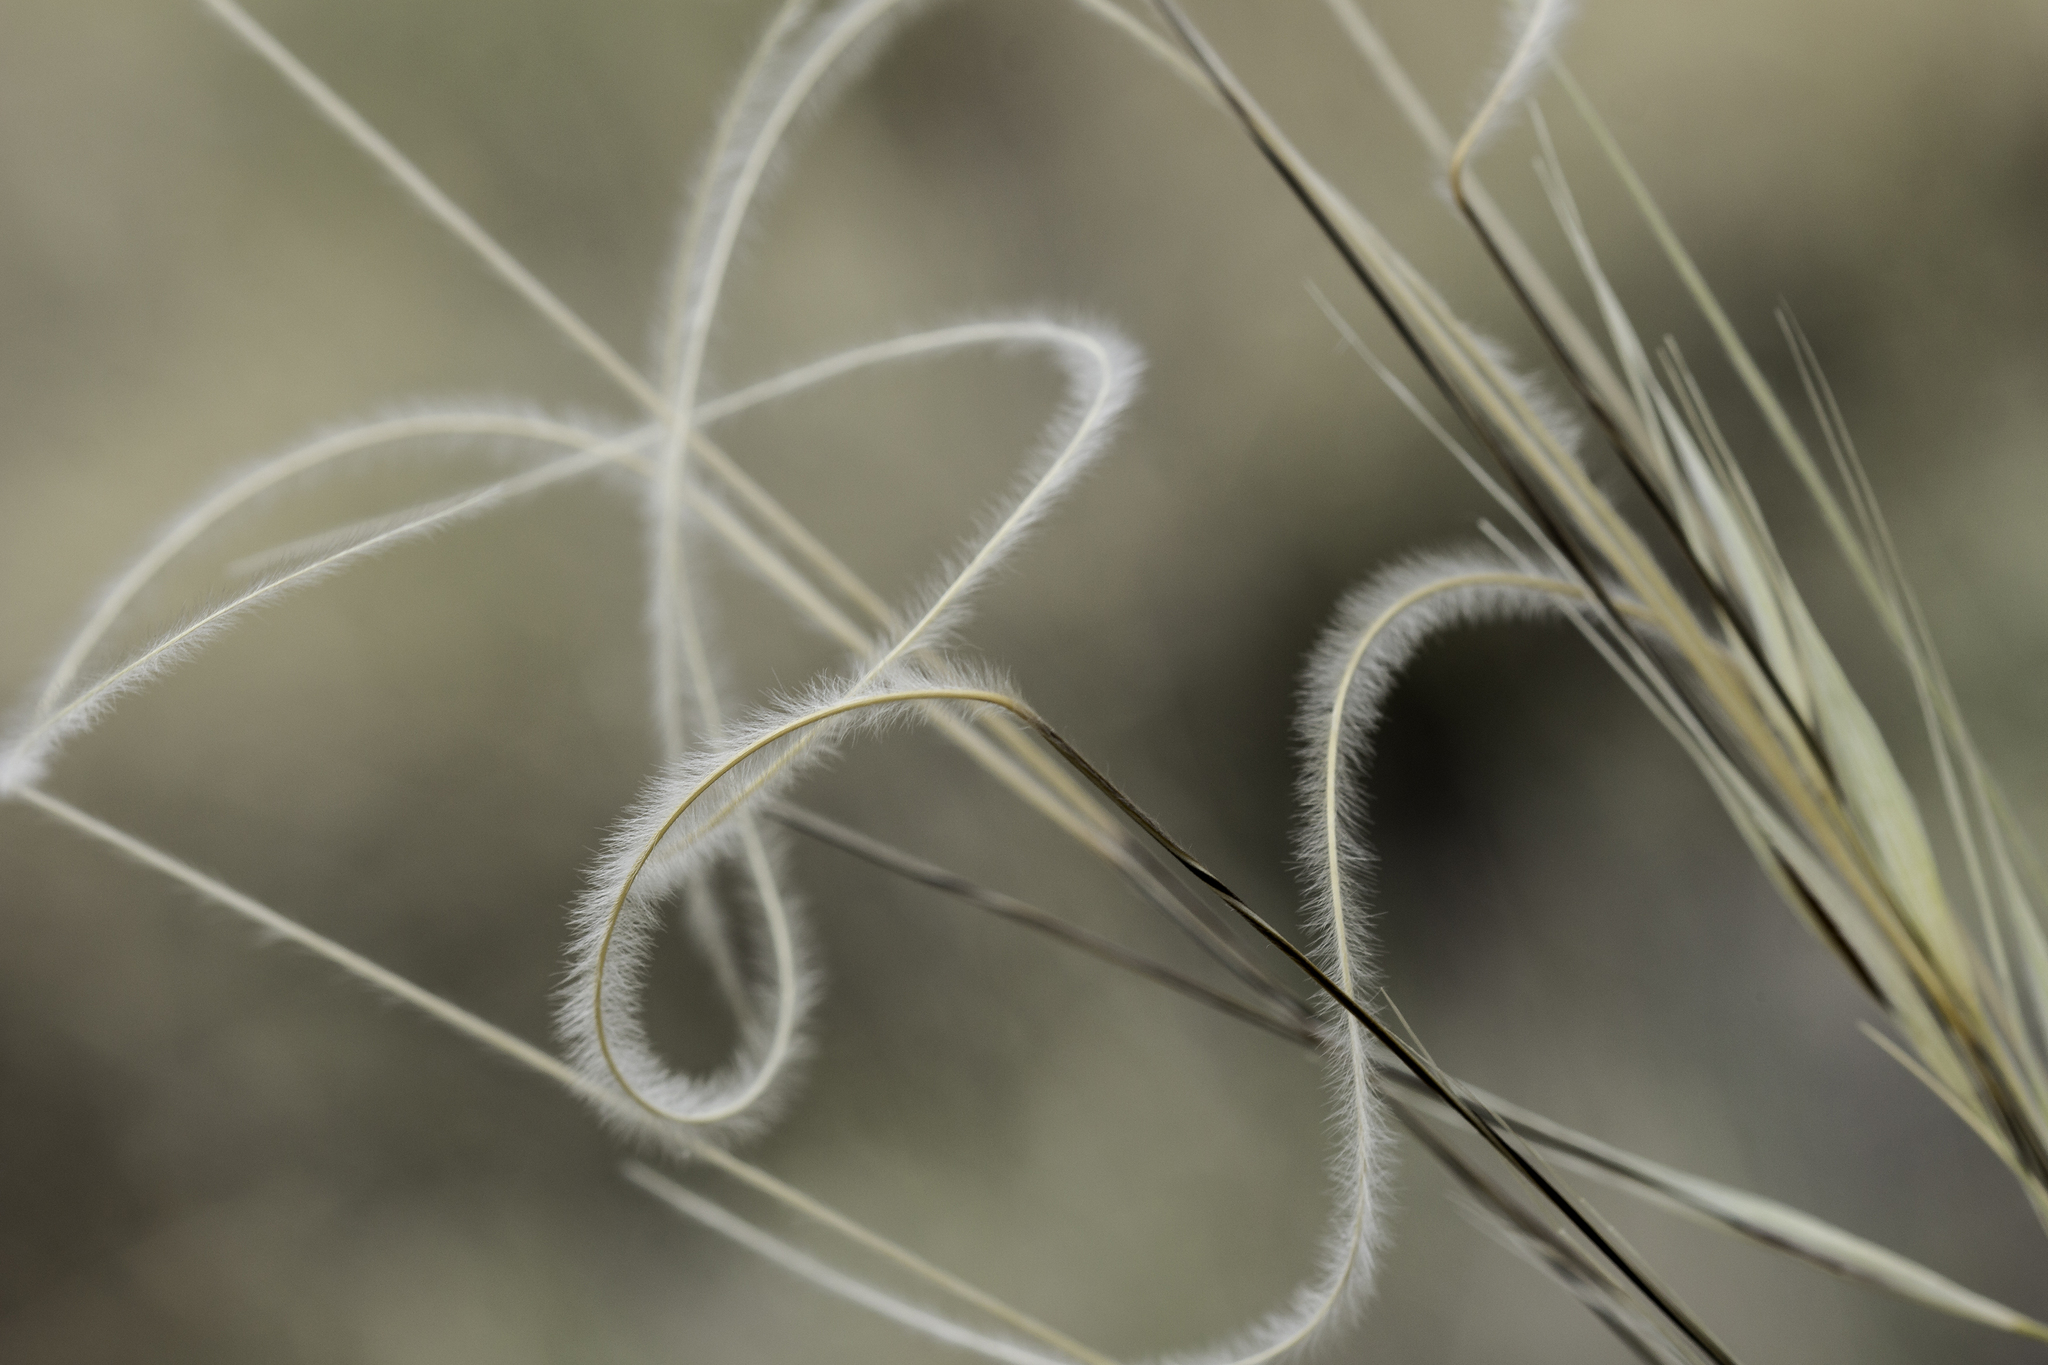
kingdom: Plantae
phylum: Tracheophyta
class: Liliopsida
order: Poales
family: Poaceae
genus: Hesperostipa
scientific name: Hesperostipa neomexicana
